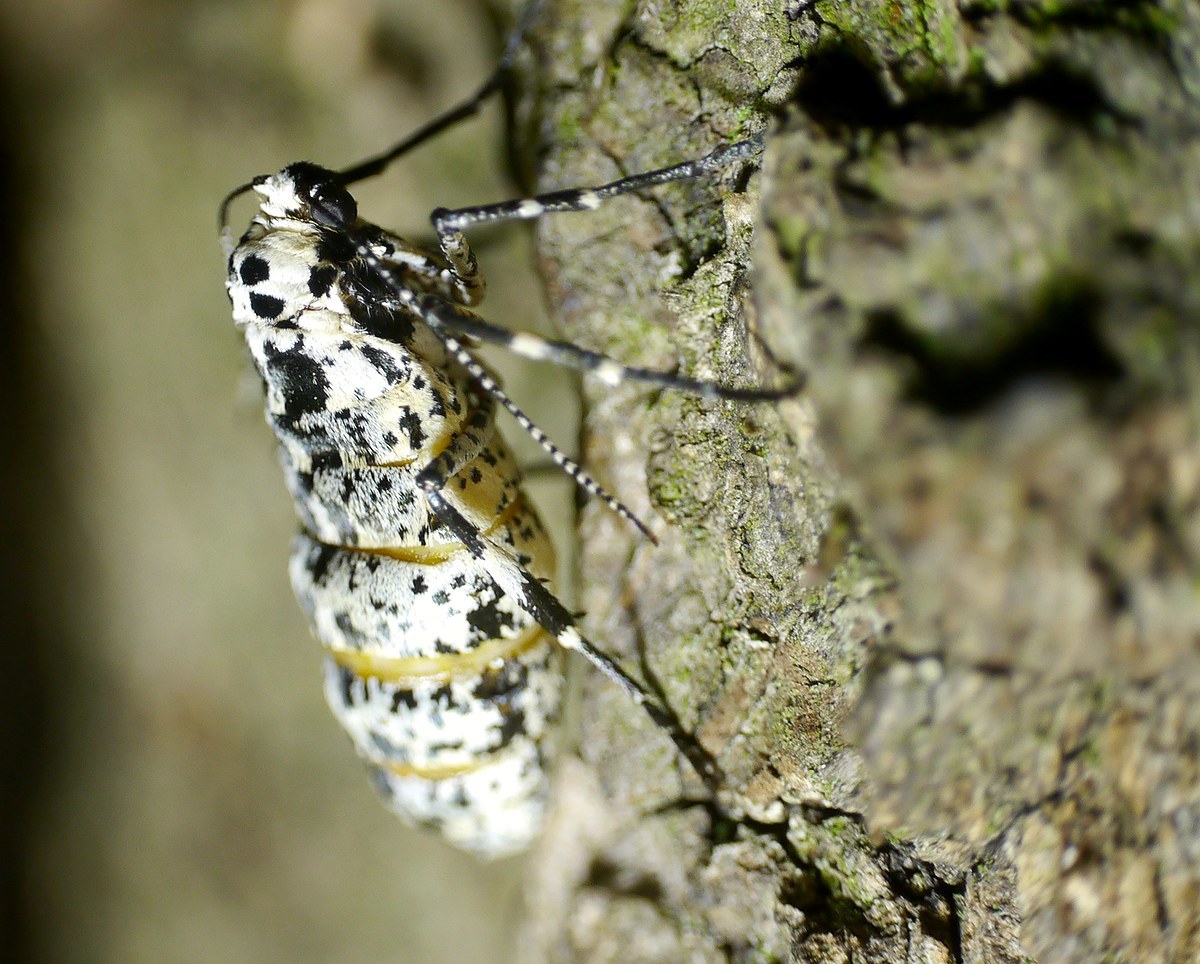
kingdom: Animalia
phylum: Arthropoda
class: Insecta
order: Lepidoptera
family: Geometridae
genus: Erannis
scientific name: Erannis defoliaria
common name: Mottled umber
